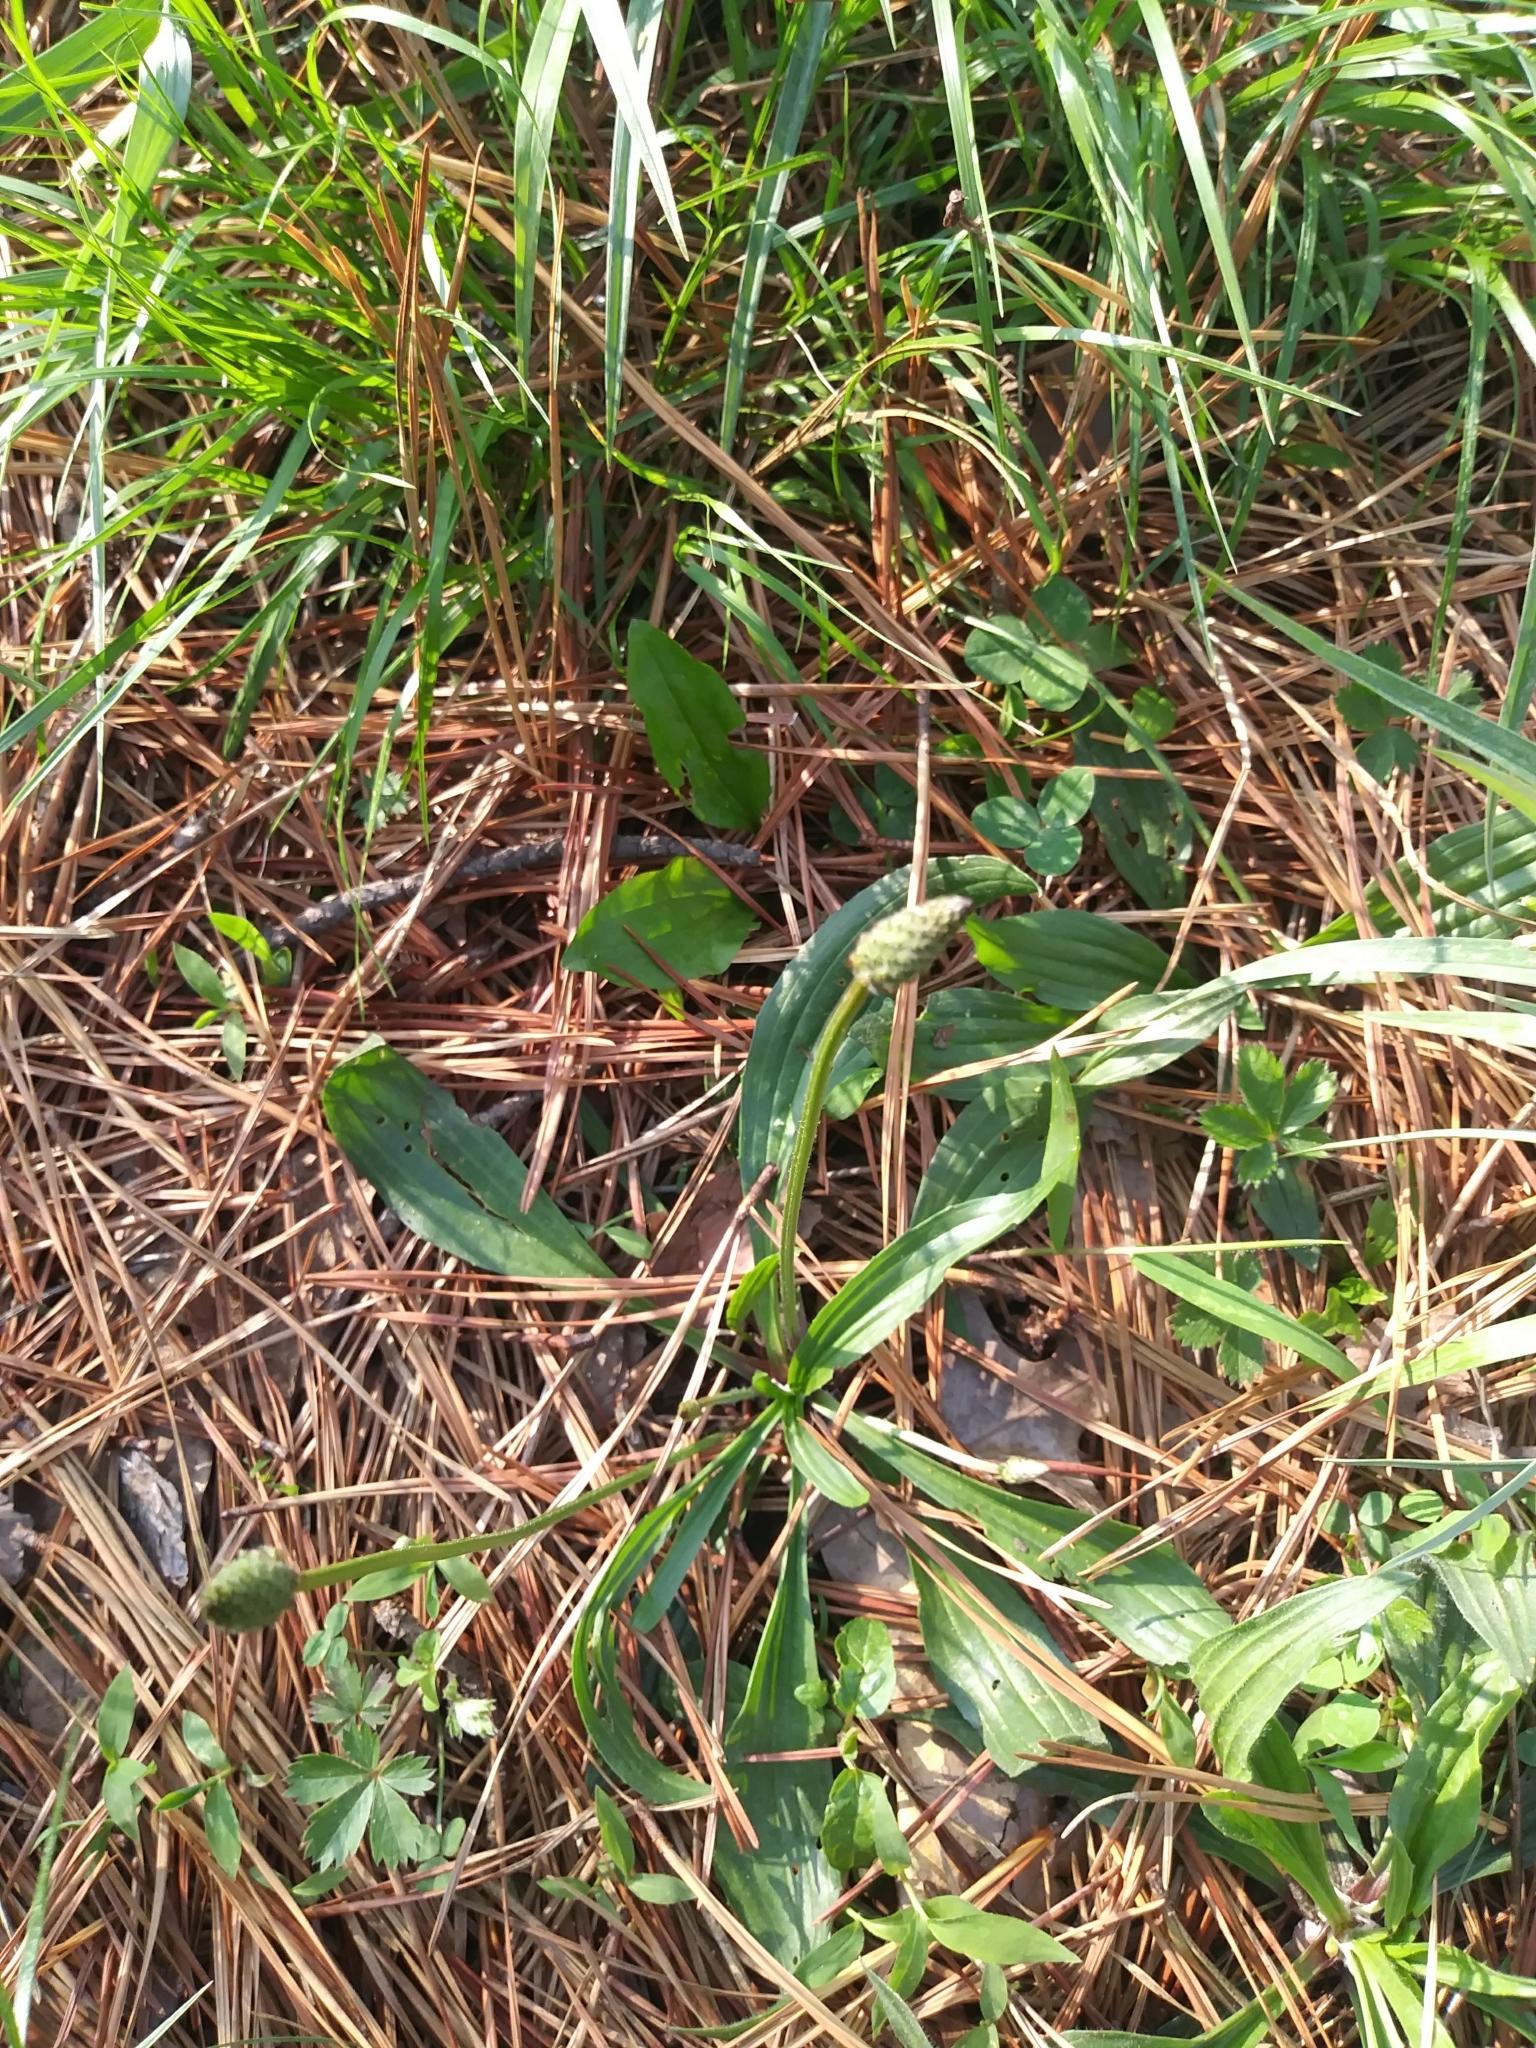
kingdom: Plantae
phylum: Tracheophyta
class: Magnoliopsida
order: Lamiales
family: Plantaginaceae
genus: Plantago
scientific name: Plantago lanceolata
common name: Ribwort plantain
